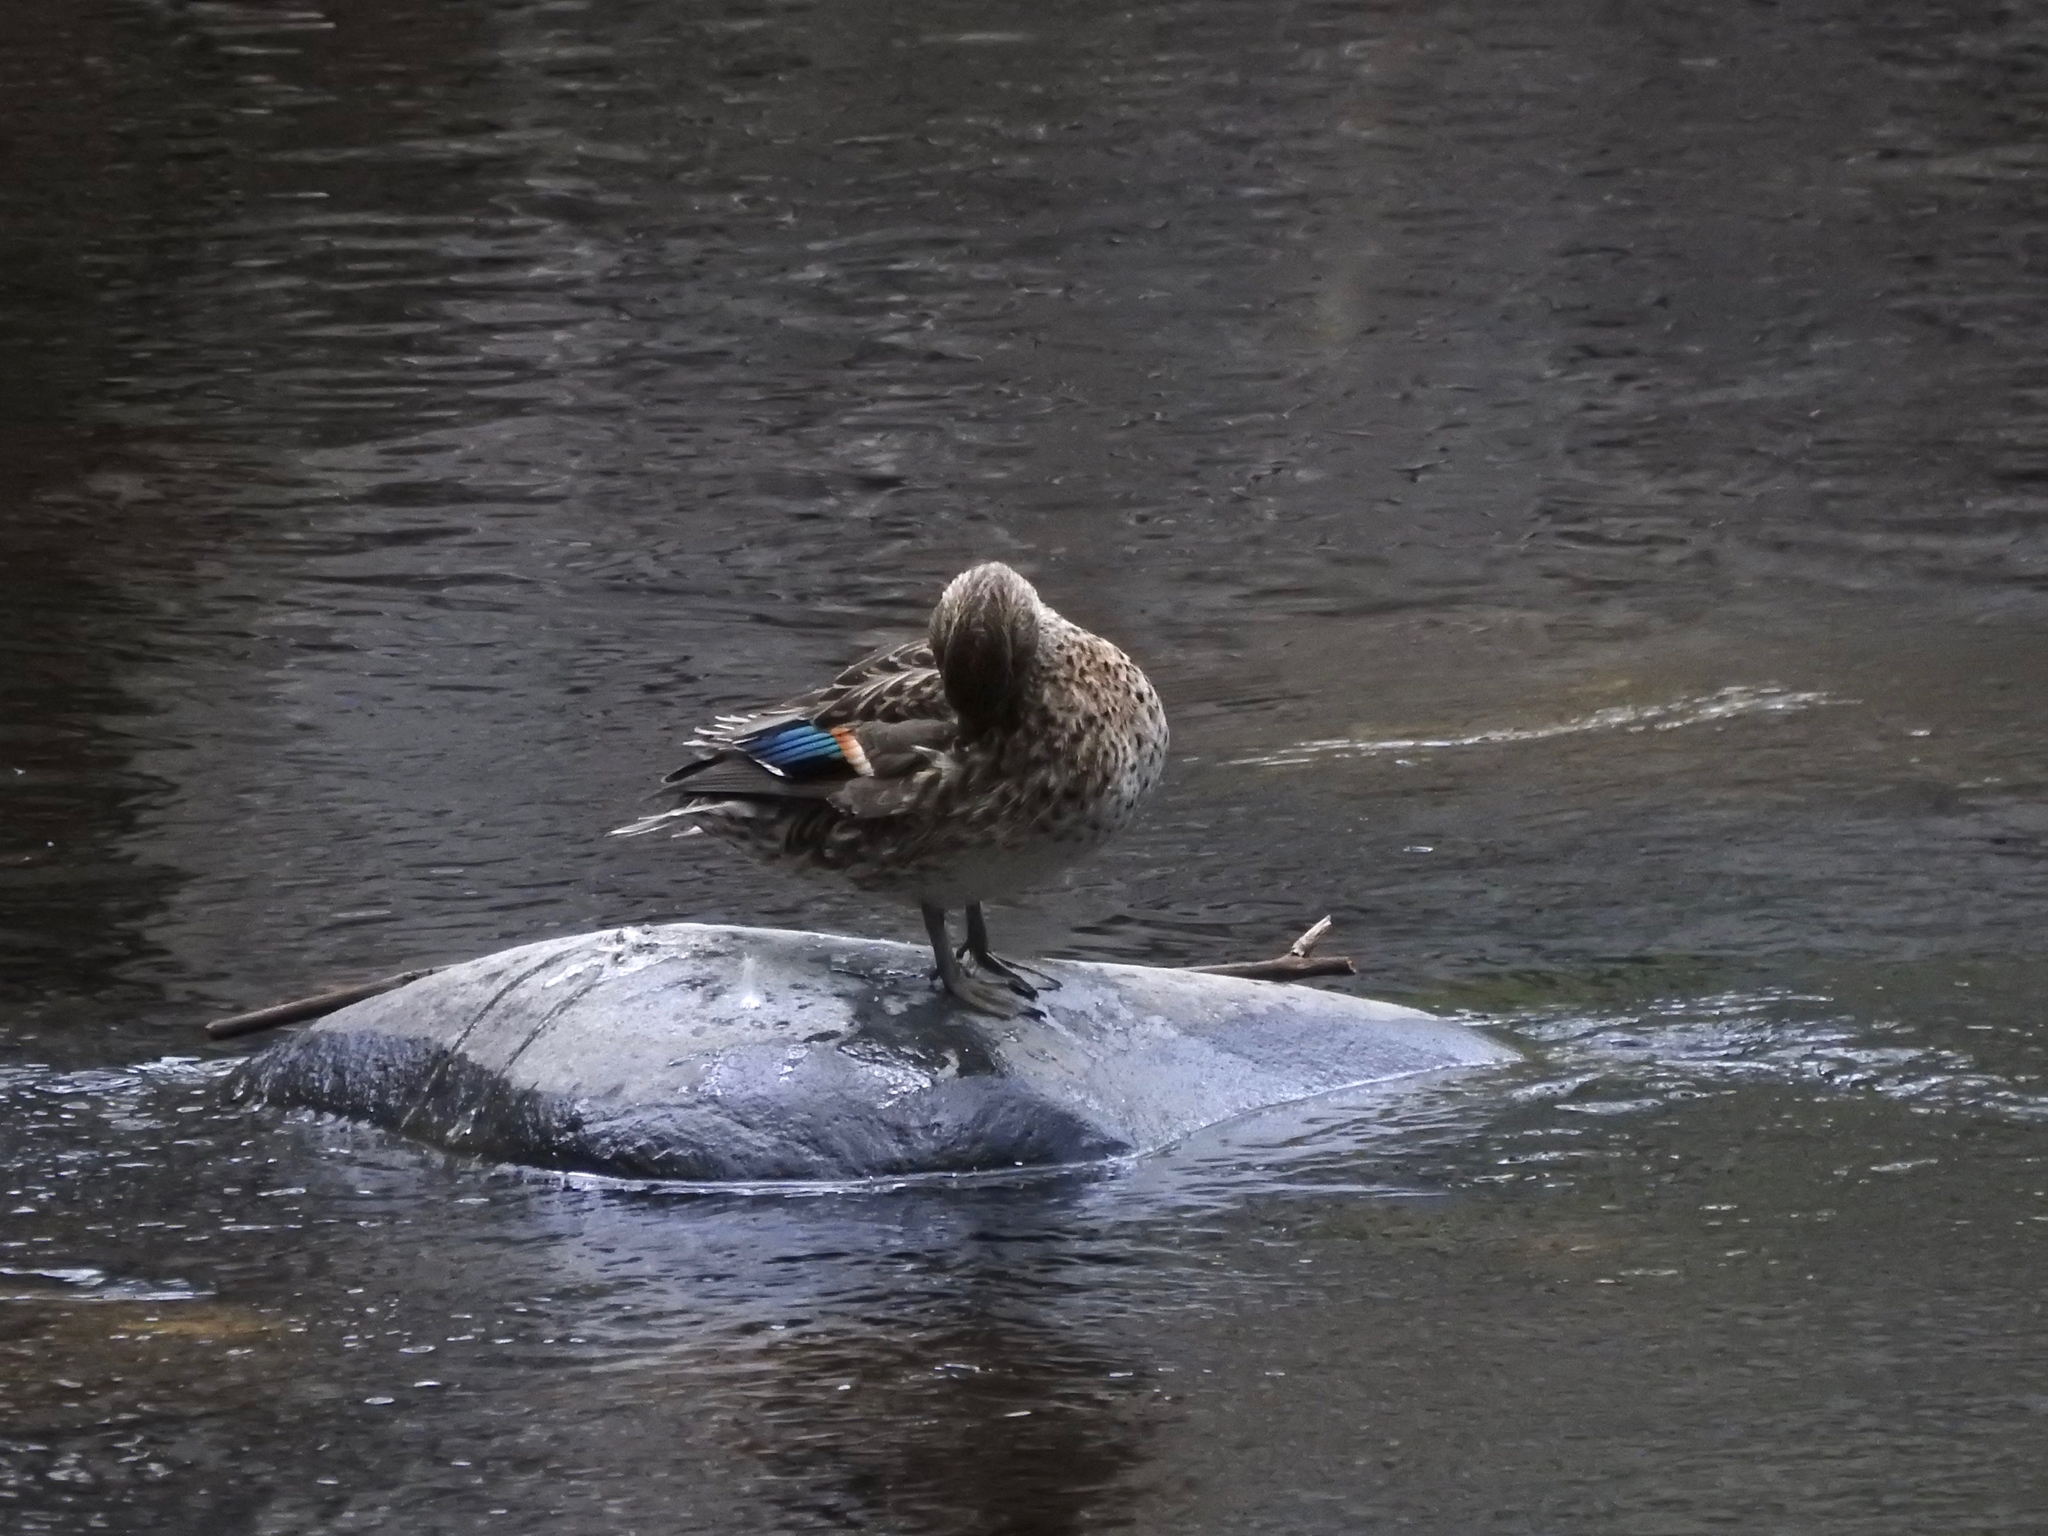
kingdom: Animalia
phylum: Chordata
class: Aves
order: Anseriformes
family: Anatidae
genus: Anas
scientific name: Anas crecca
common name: Eurasian teal
